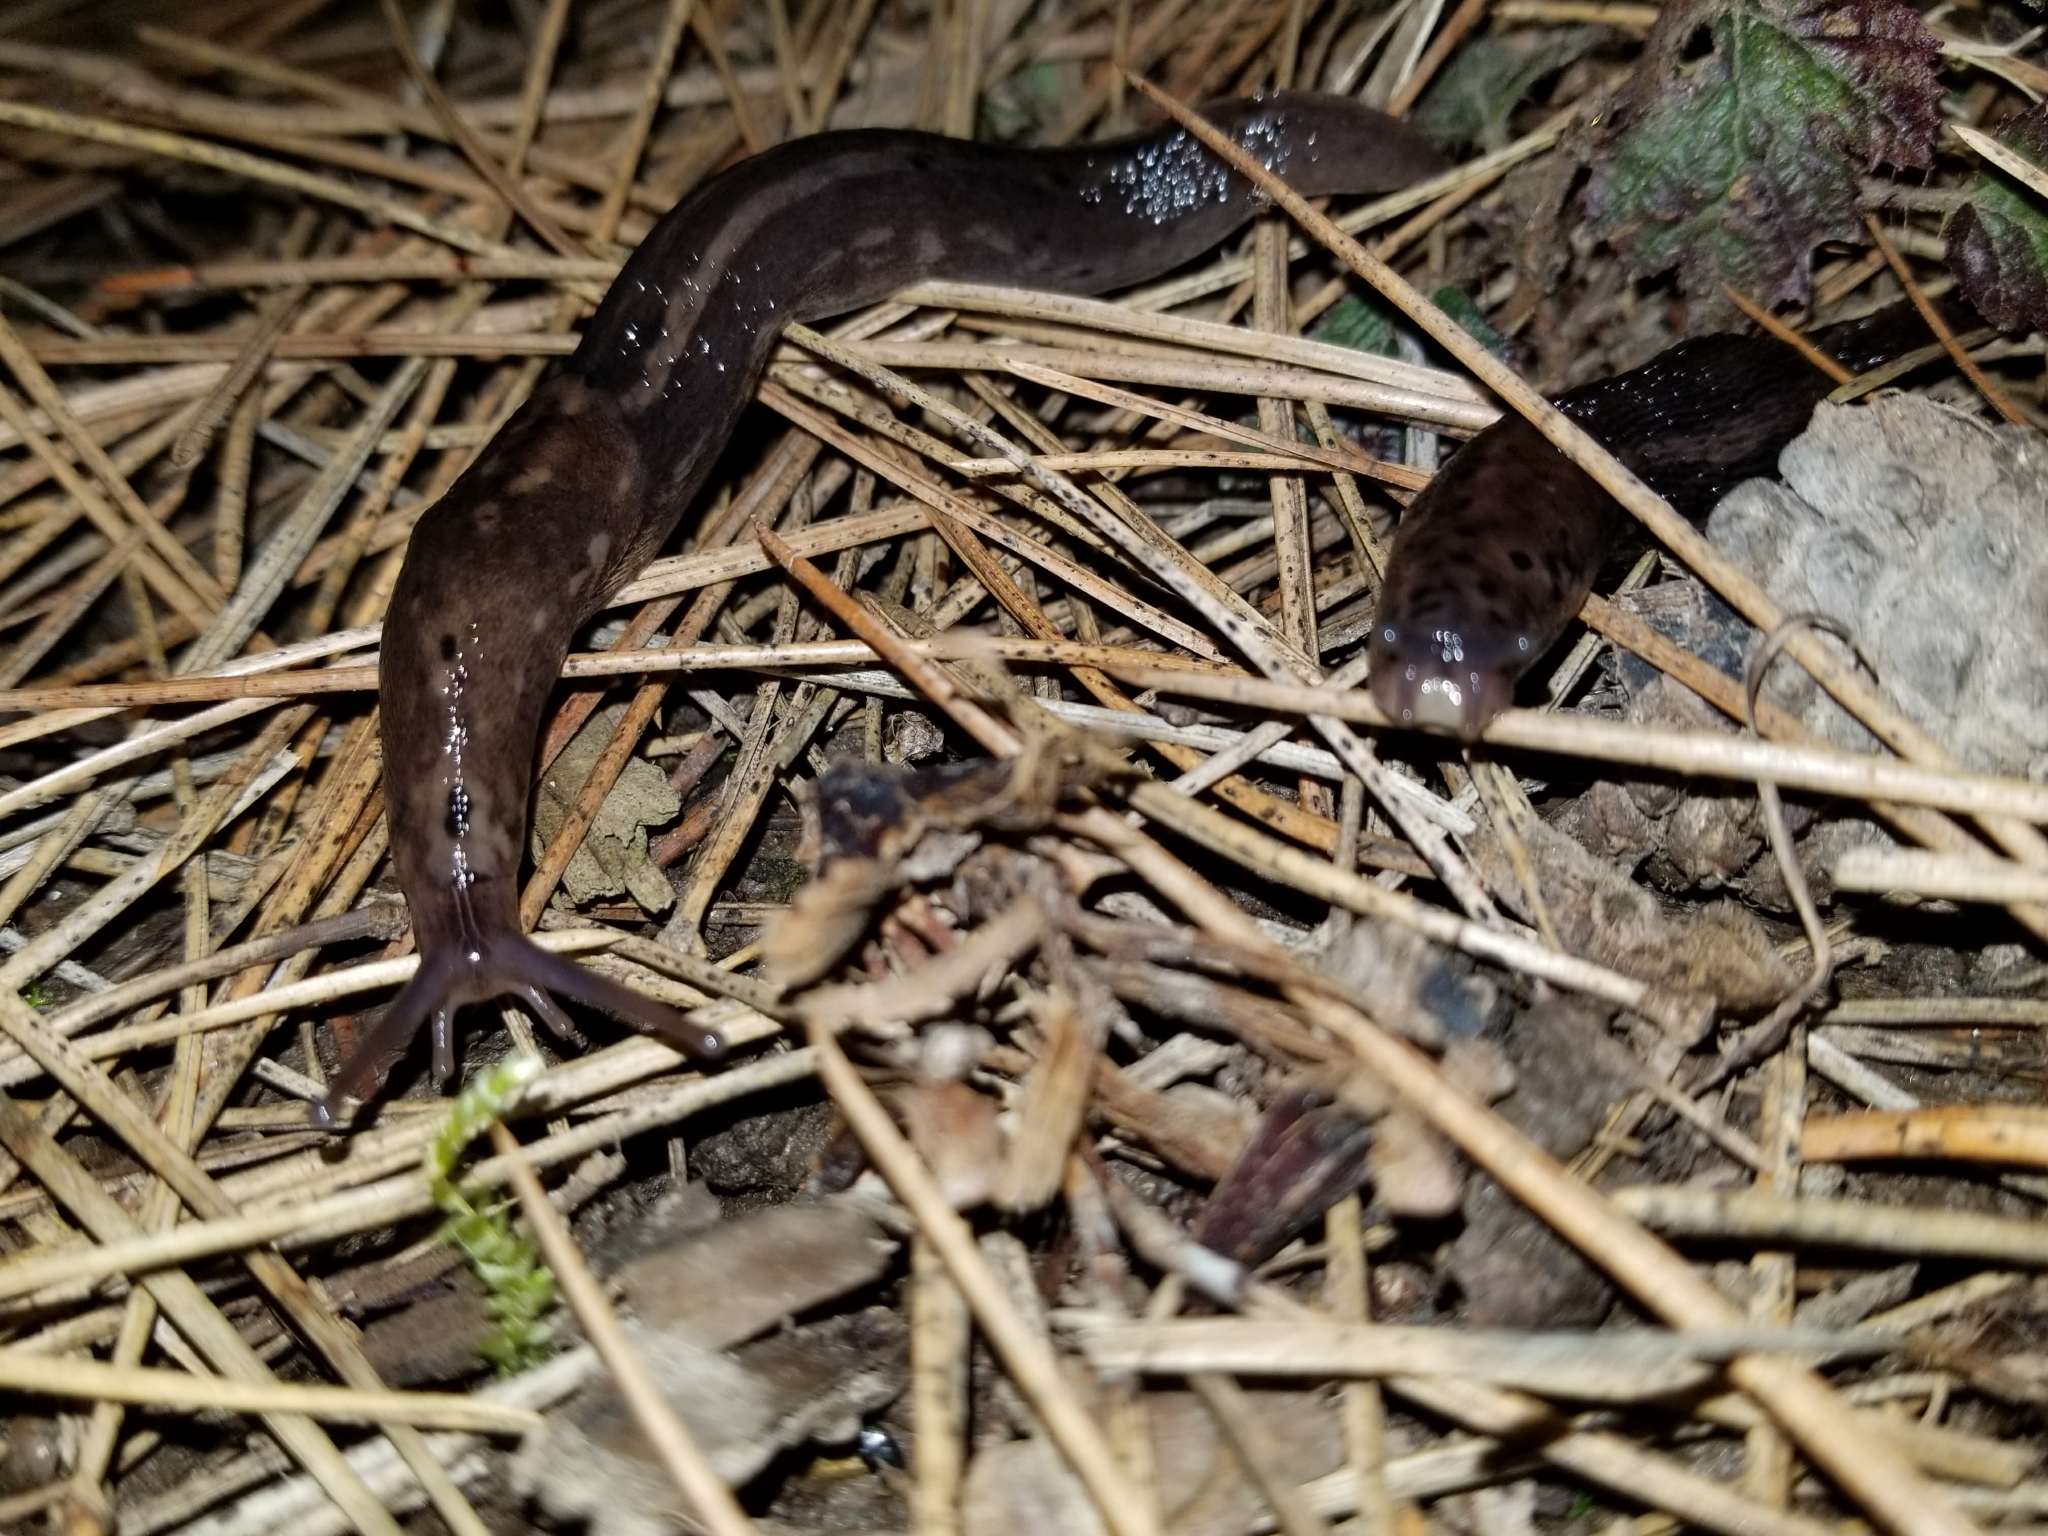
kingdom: Animalia
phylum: Mollusca
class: Gastropoda
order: Stylommatophora
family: Limacidae
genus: Limax
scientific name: Limax maximus
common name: Great grey slug
